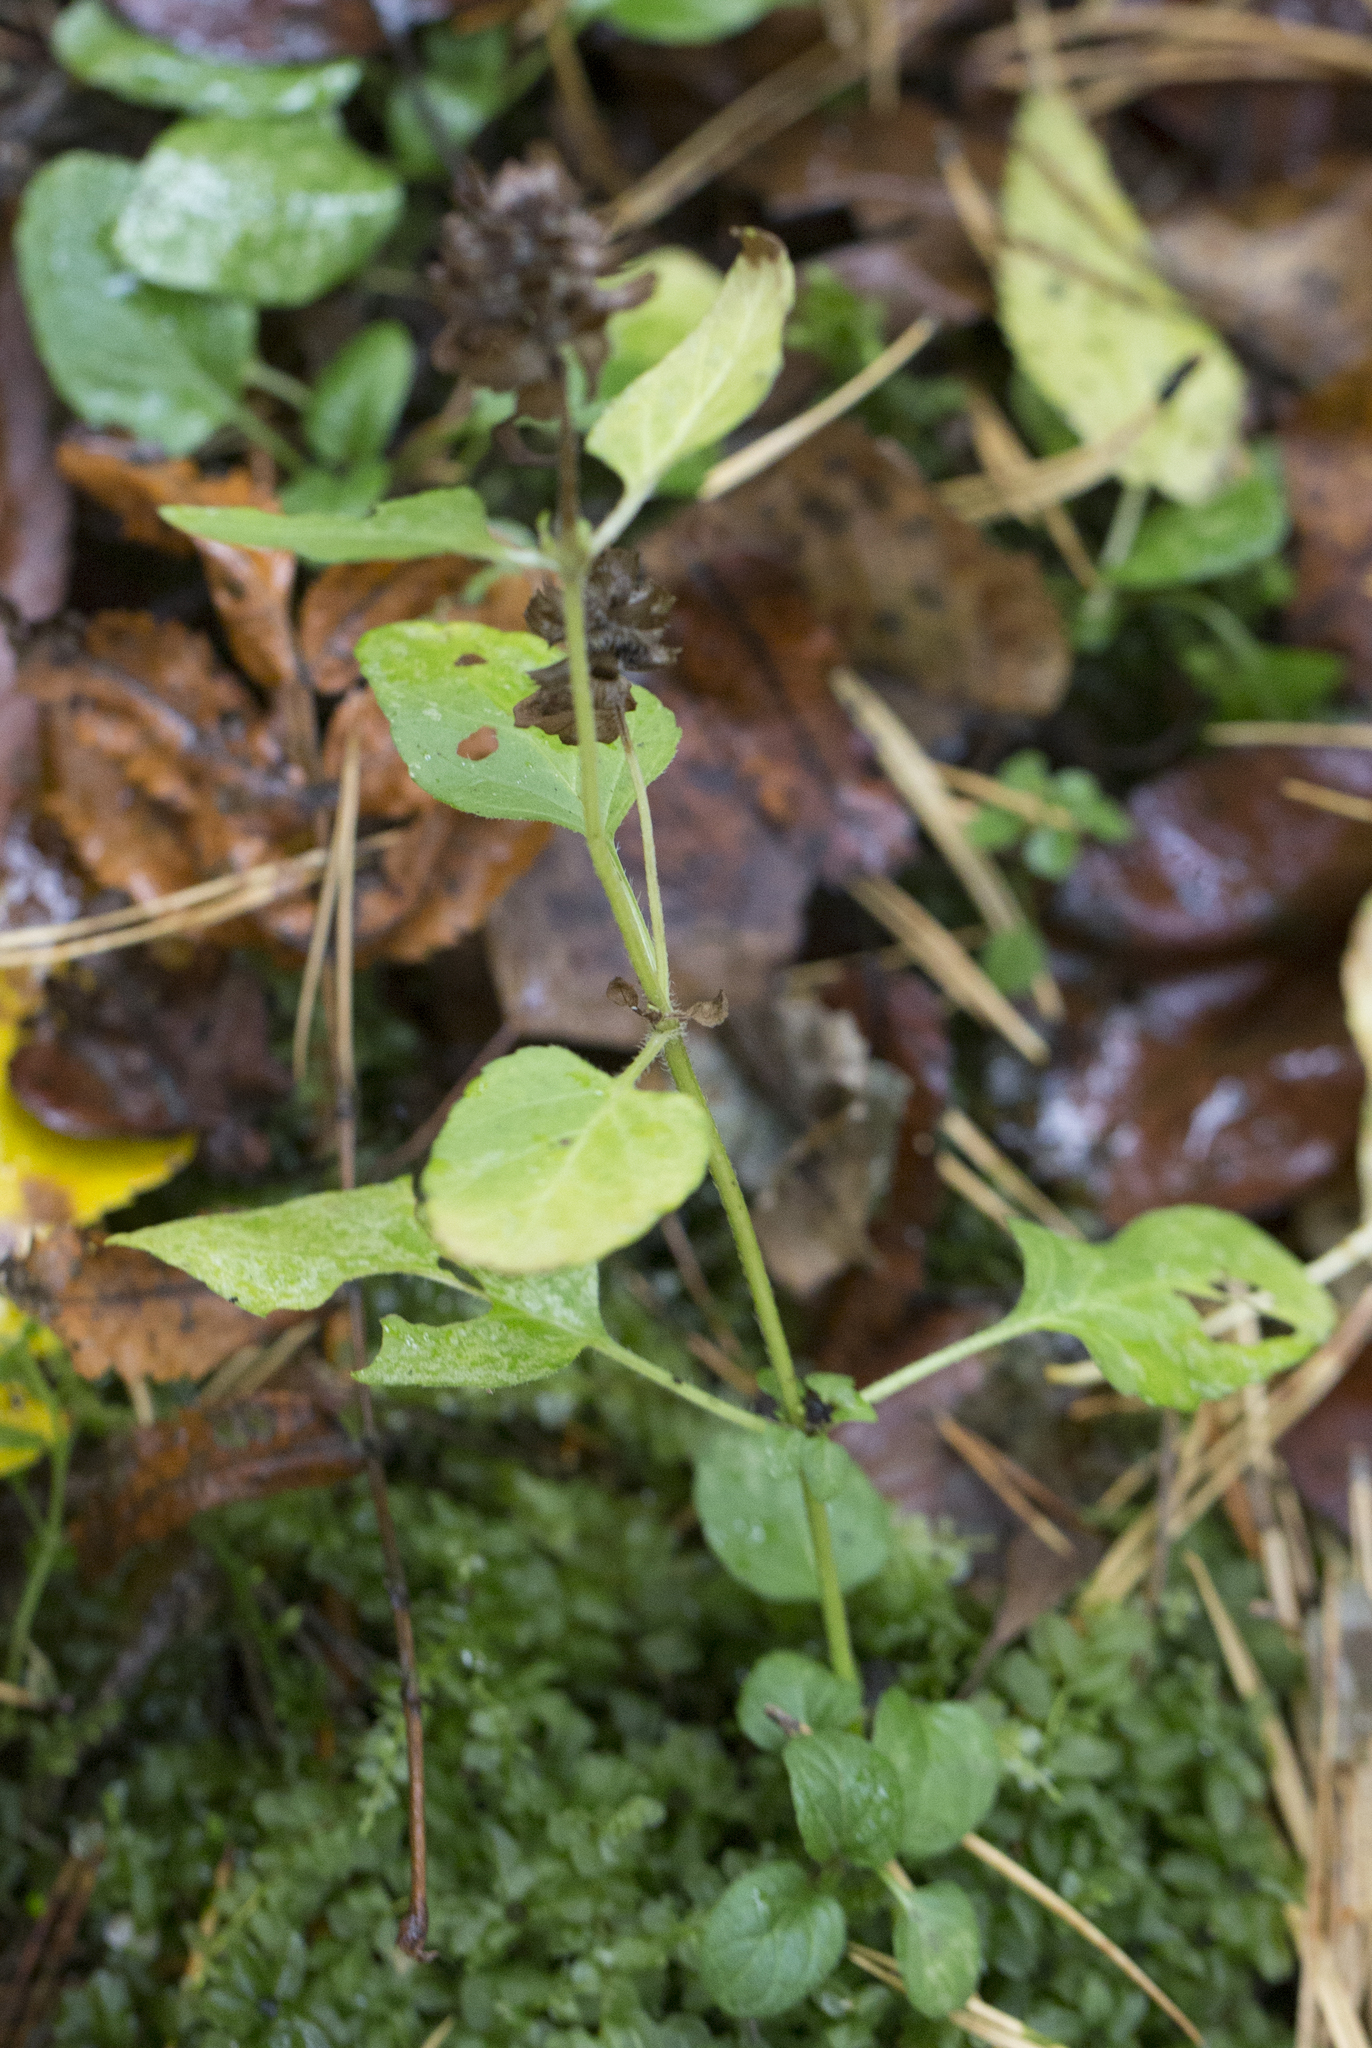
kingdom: Plantae
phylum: Tracheophyta
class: Magnoliopsida
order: Lamiales
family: Lamiaceae
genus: Prunella
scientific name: Prunella vulgaris
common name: Heal-all
